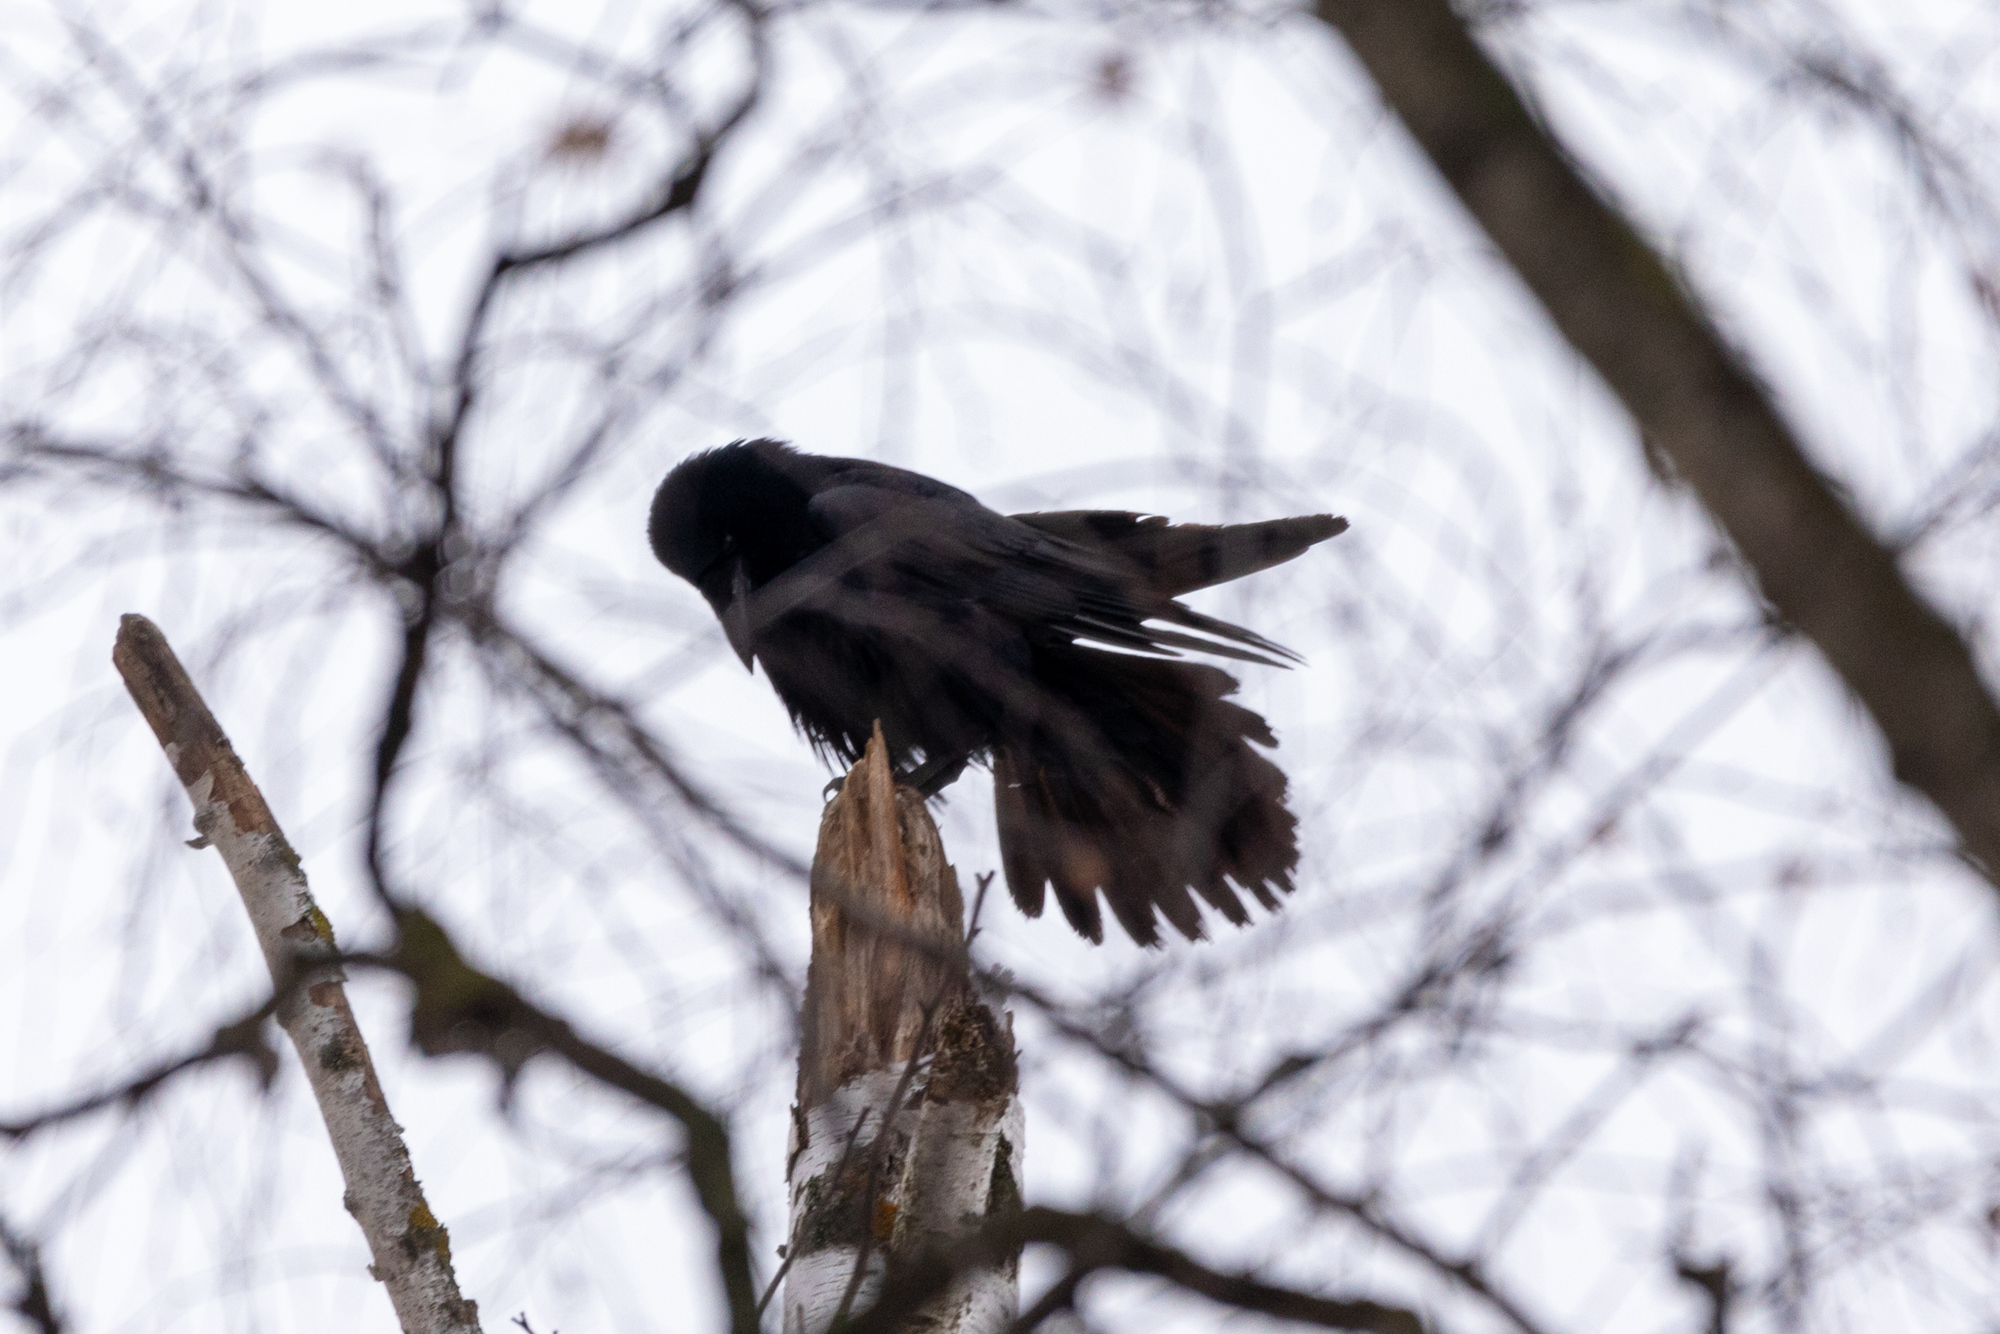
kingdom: Animalia
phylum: Chordata
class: Aves
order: Passeriformes
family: Corvidae
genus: Corvus
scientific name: Corvus corax
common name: Common raven
